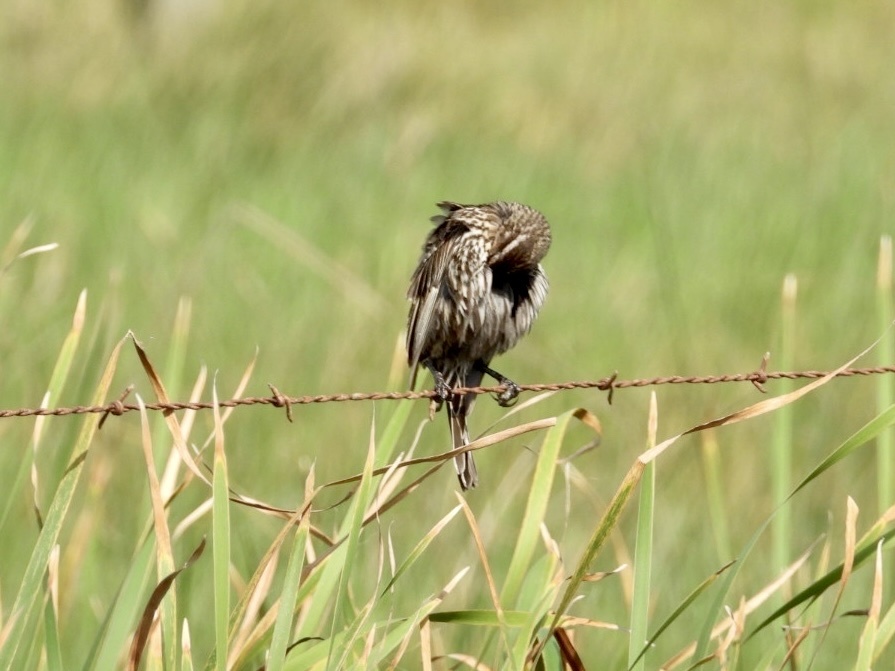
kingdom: Animalia
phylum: Chordata
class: Aves
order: Passeriformes
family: Icteridae
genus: Agelaius
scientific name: Agelaius phoeniceus
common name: Red-winged blackbird
